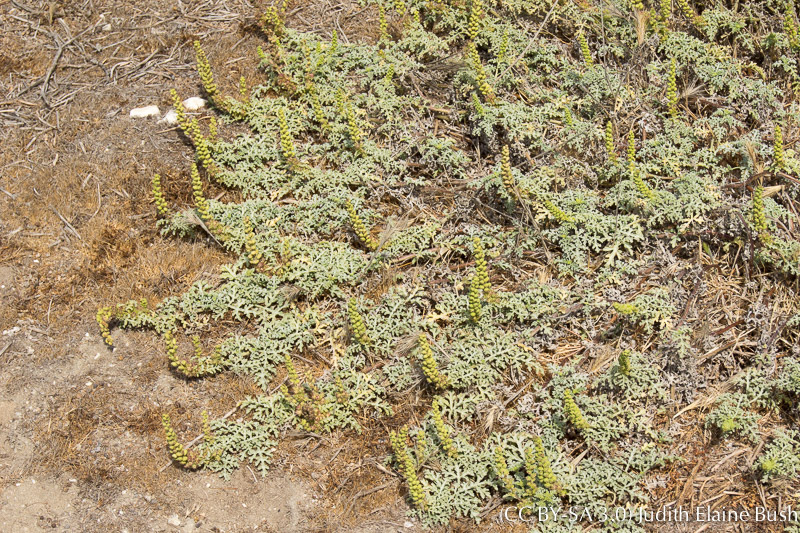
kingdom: Plantae
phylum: Tracheophyta
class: Magnoliopsida
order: Asterales
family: Asteraceae
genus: Ambrosia
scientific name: Ambrosia chamissonis
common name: Beachbur
